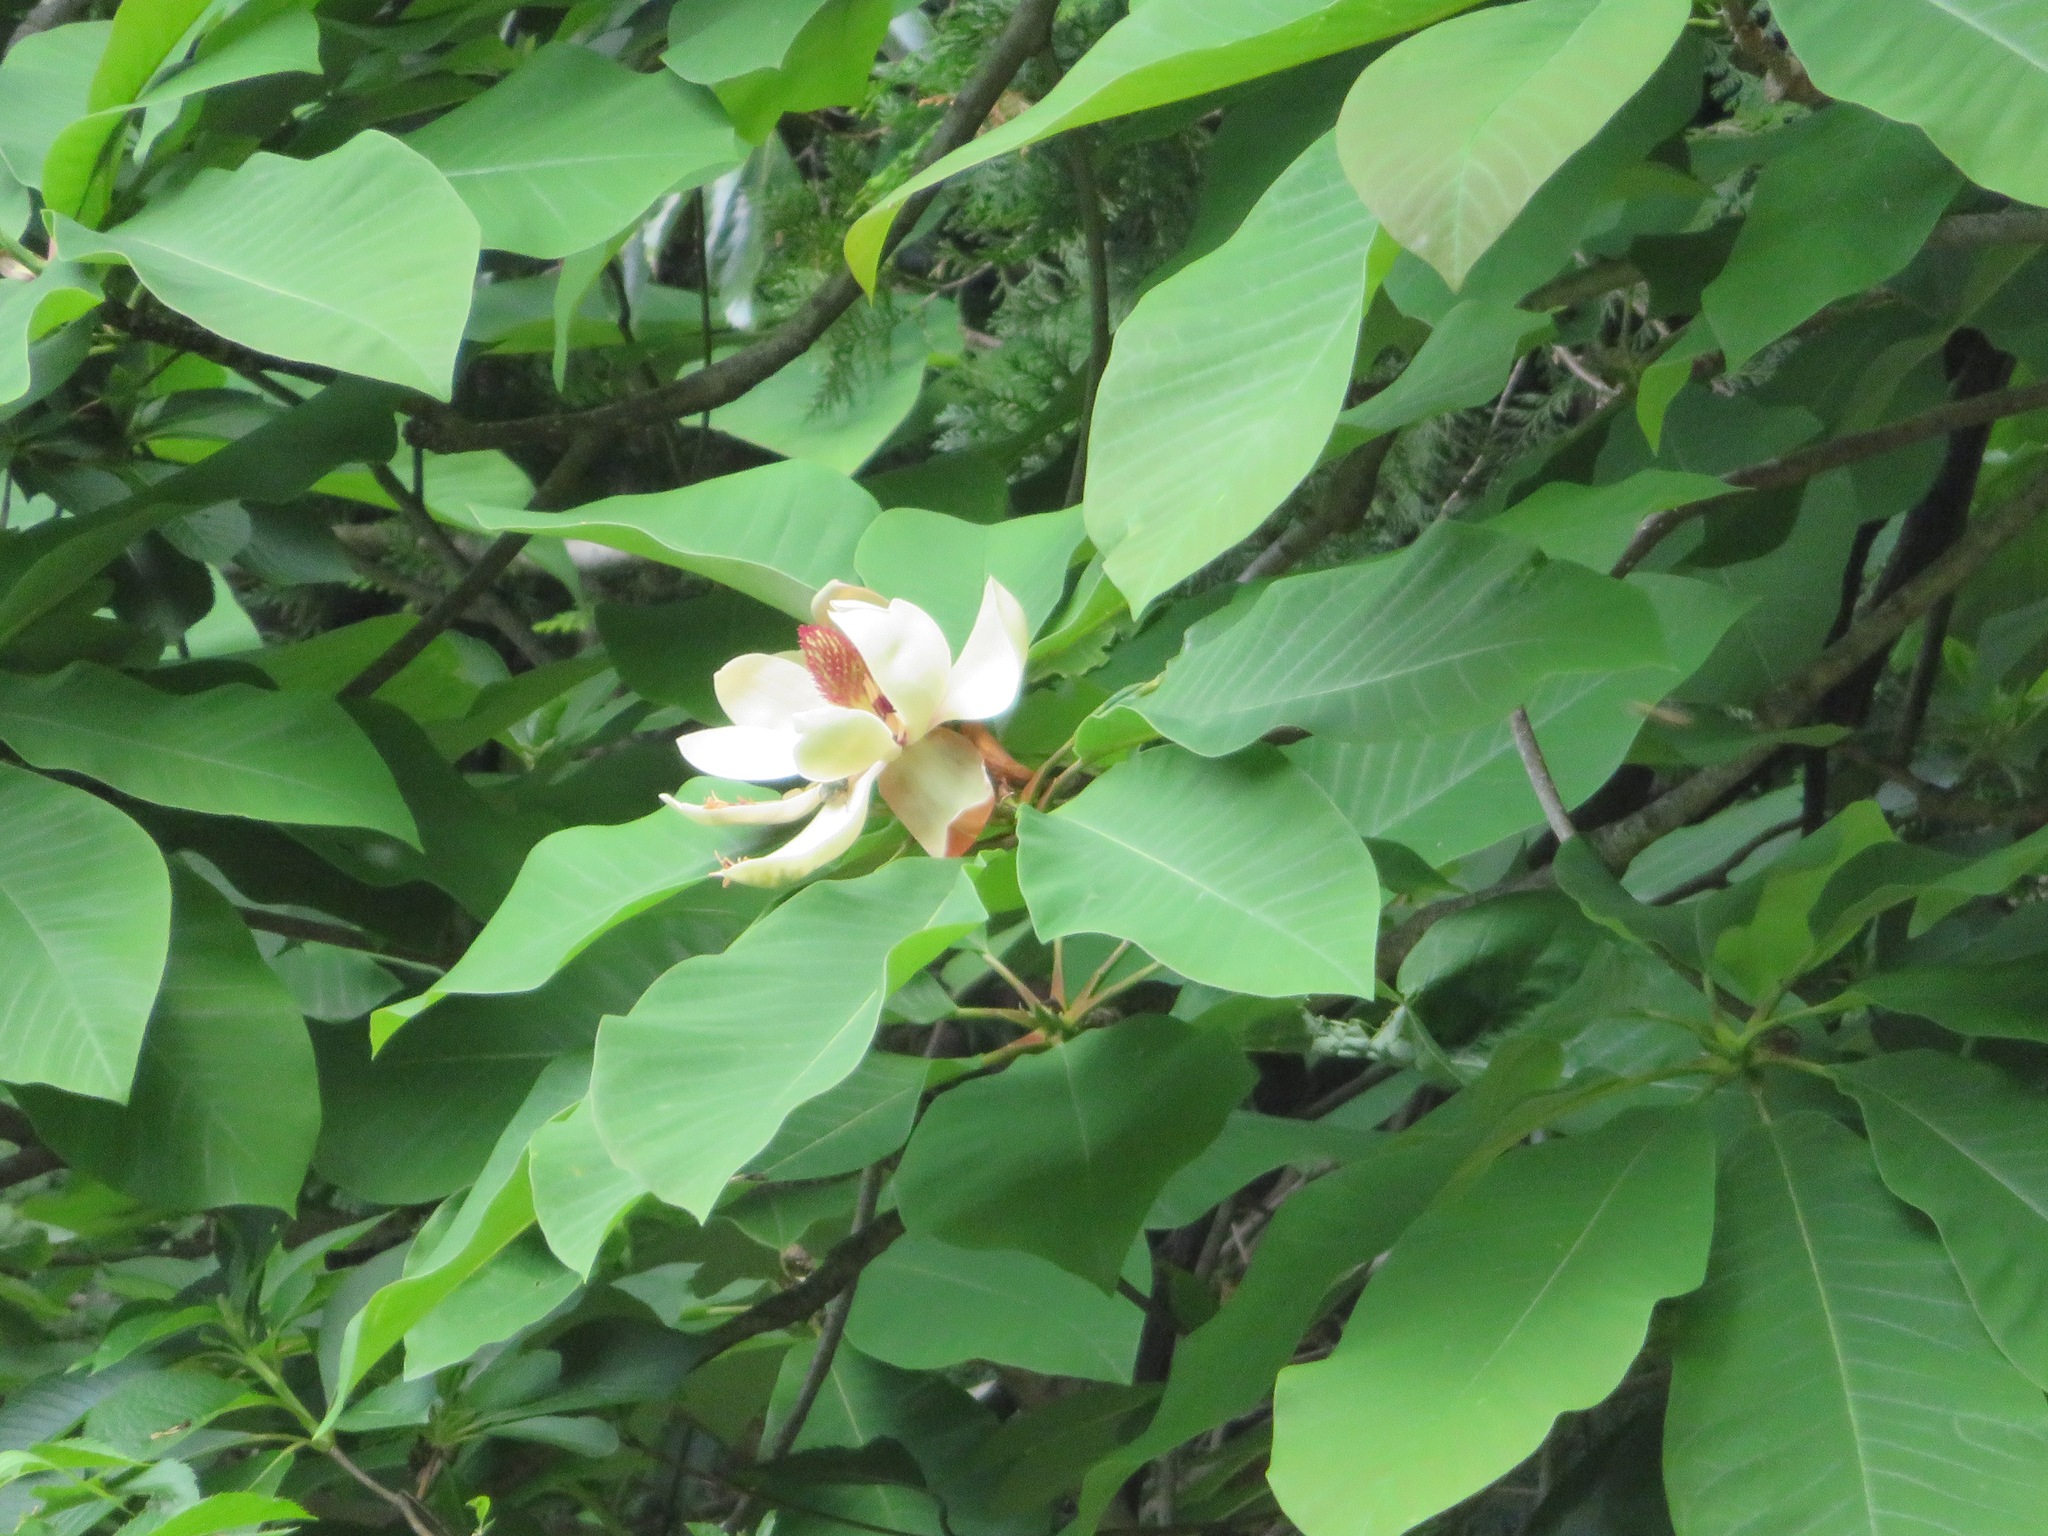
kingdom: Plantae
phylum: Tracheophyta
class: Magnoliopsida
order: Magnoliales
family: Magnoliaceae
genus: Magnolia
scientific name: Magnolia obovata
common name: Japanese whitebark magnolia
